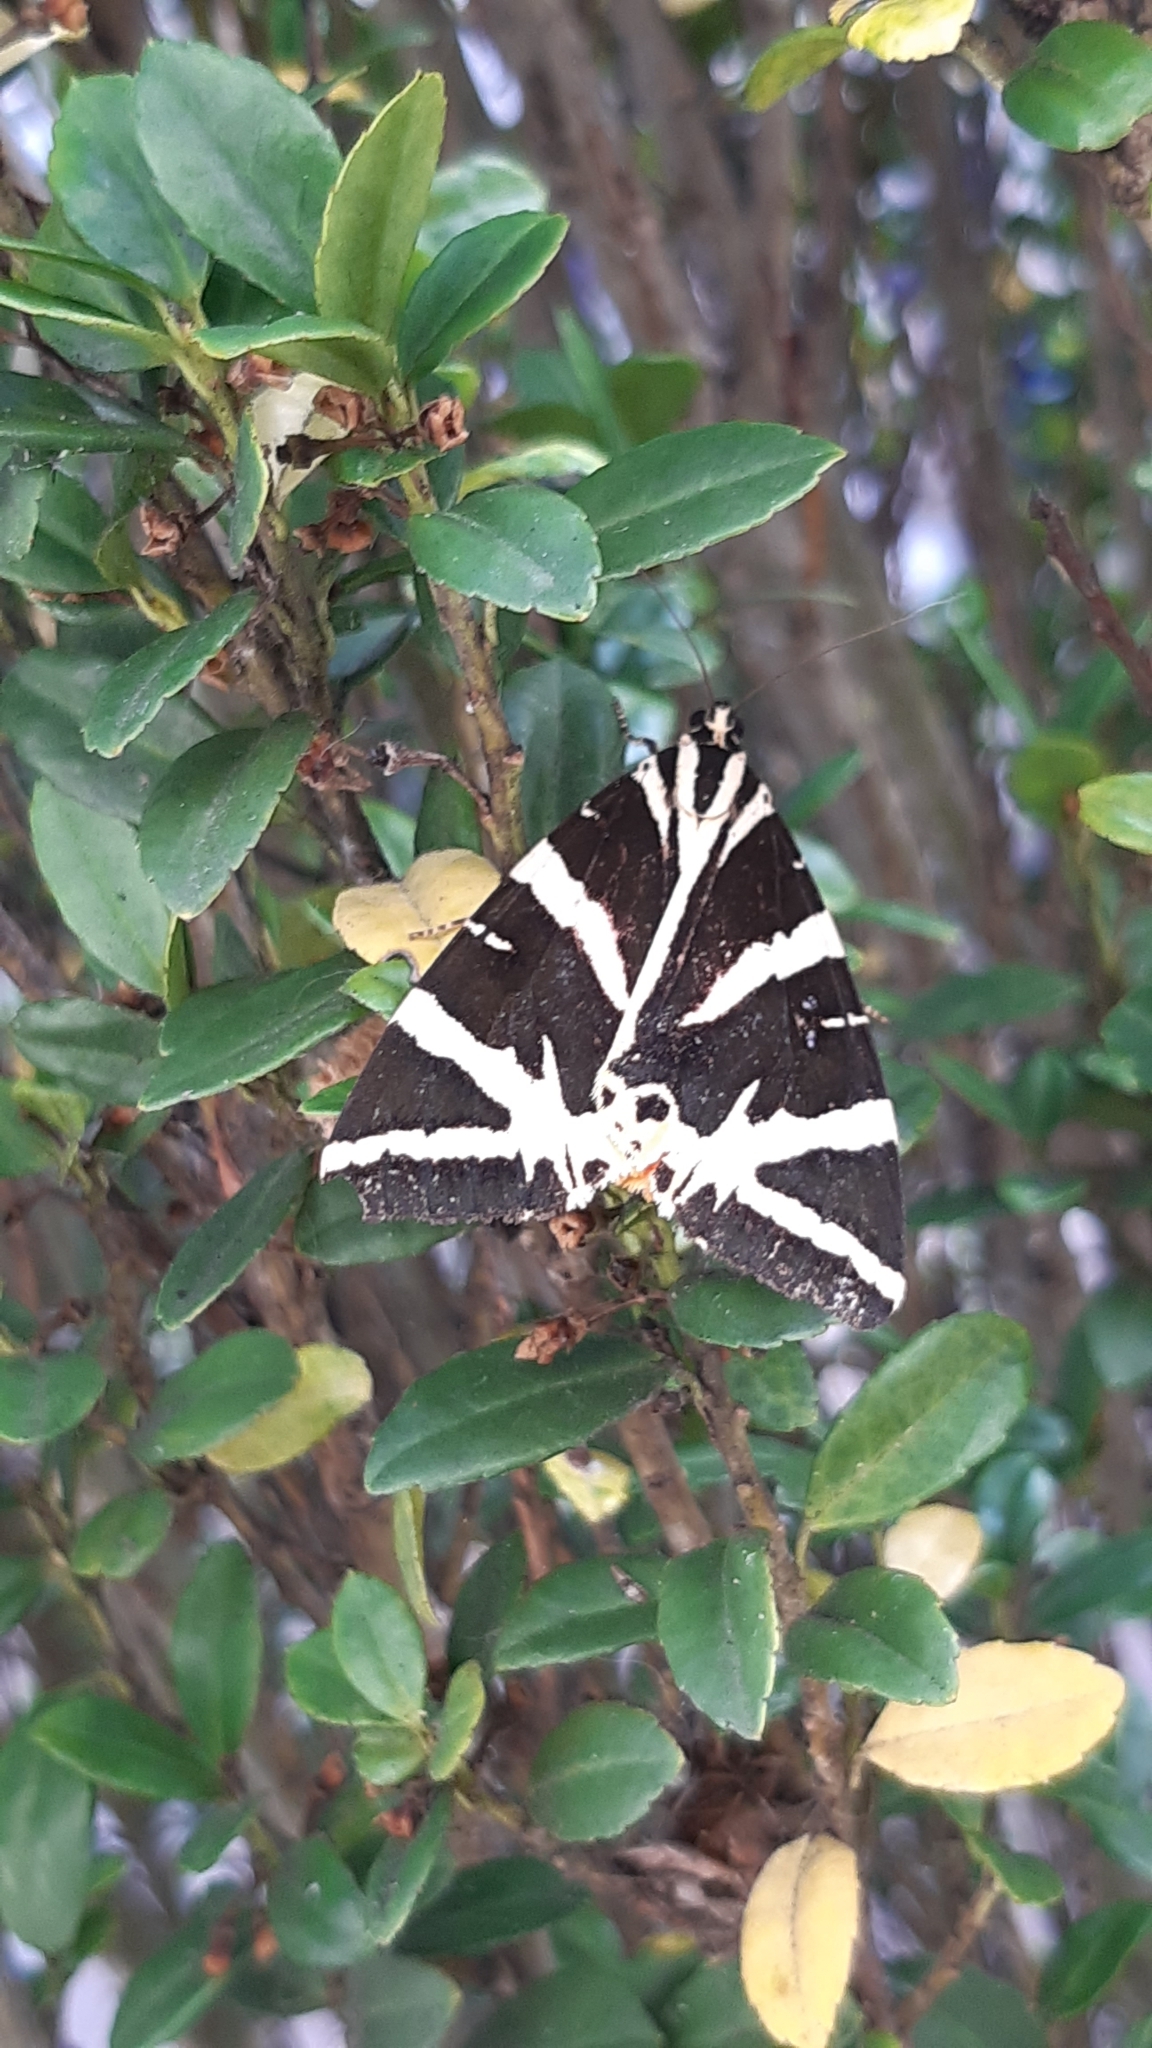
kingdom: Animalia
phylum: Arthropoda
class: Insecta
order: Lepidoptera
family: Erebidae
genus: Euplagia
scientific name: Euplagia quadripunctaria
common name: Jersey tiger
